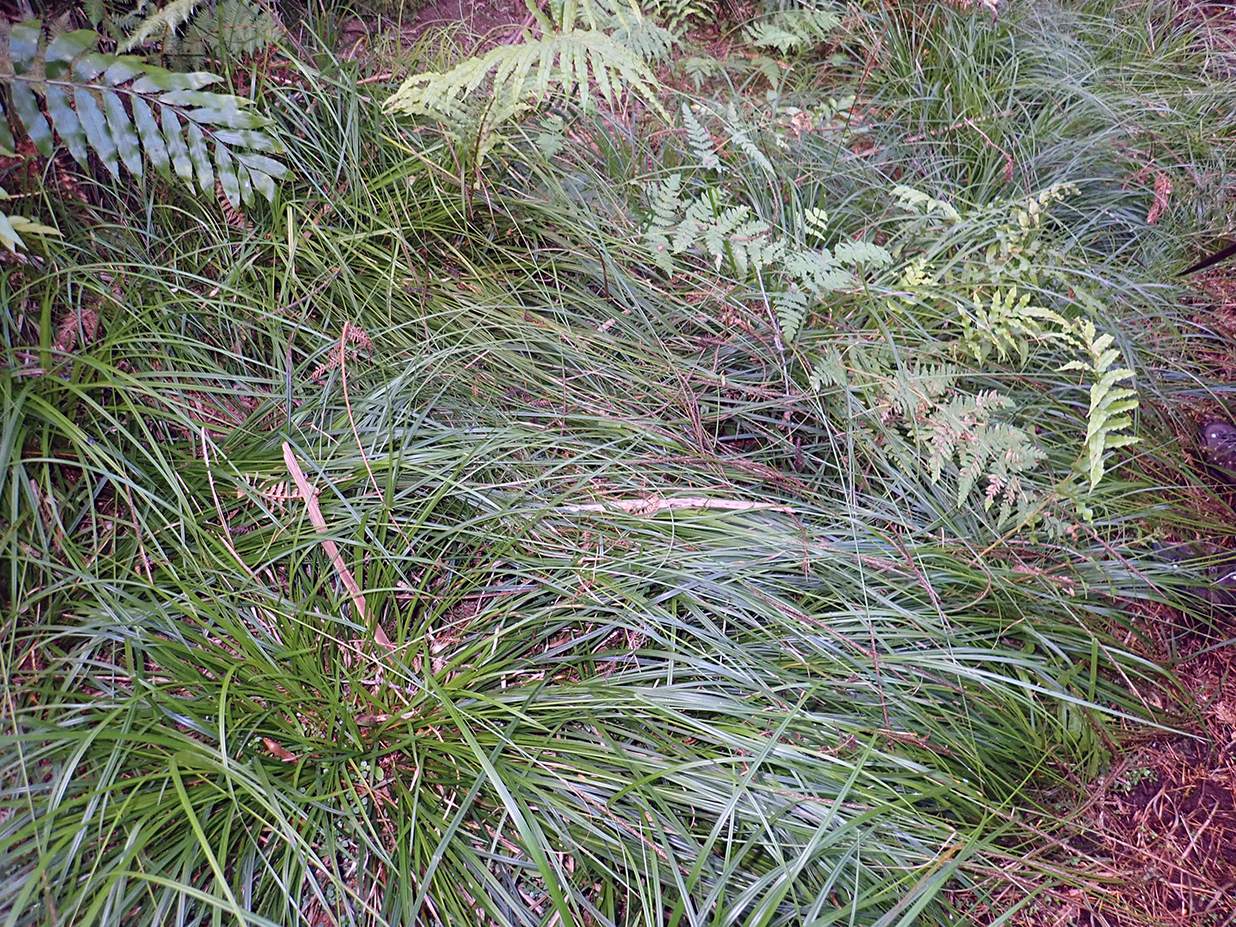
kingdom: Plantae
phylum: Tracheophyta
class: Liliopsida
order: Poales
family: Cyperaceae
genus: Carex
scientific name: Carex auceps
